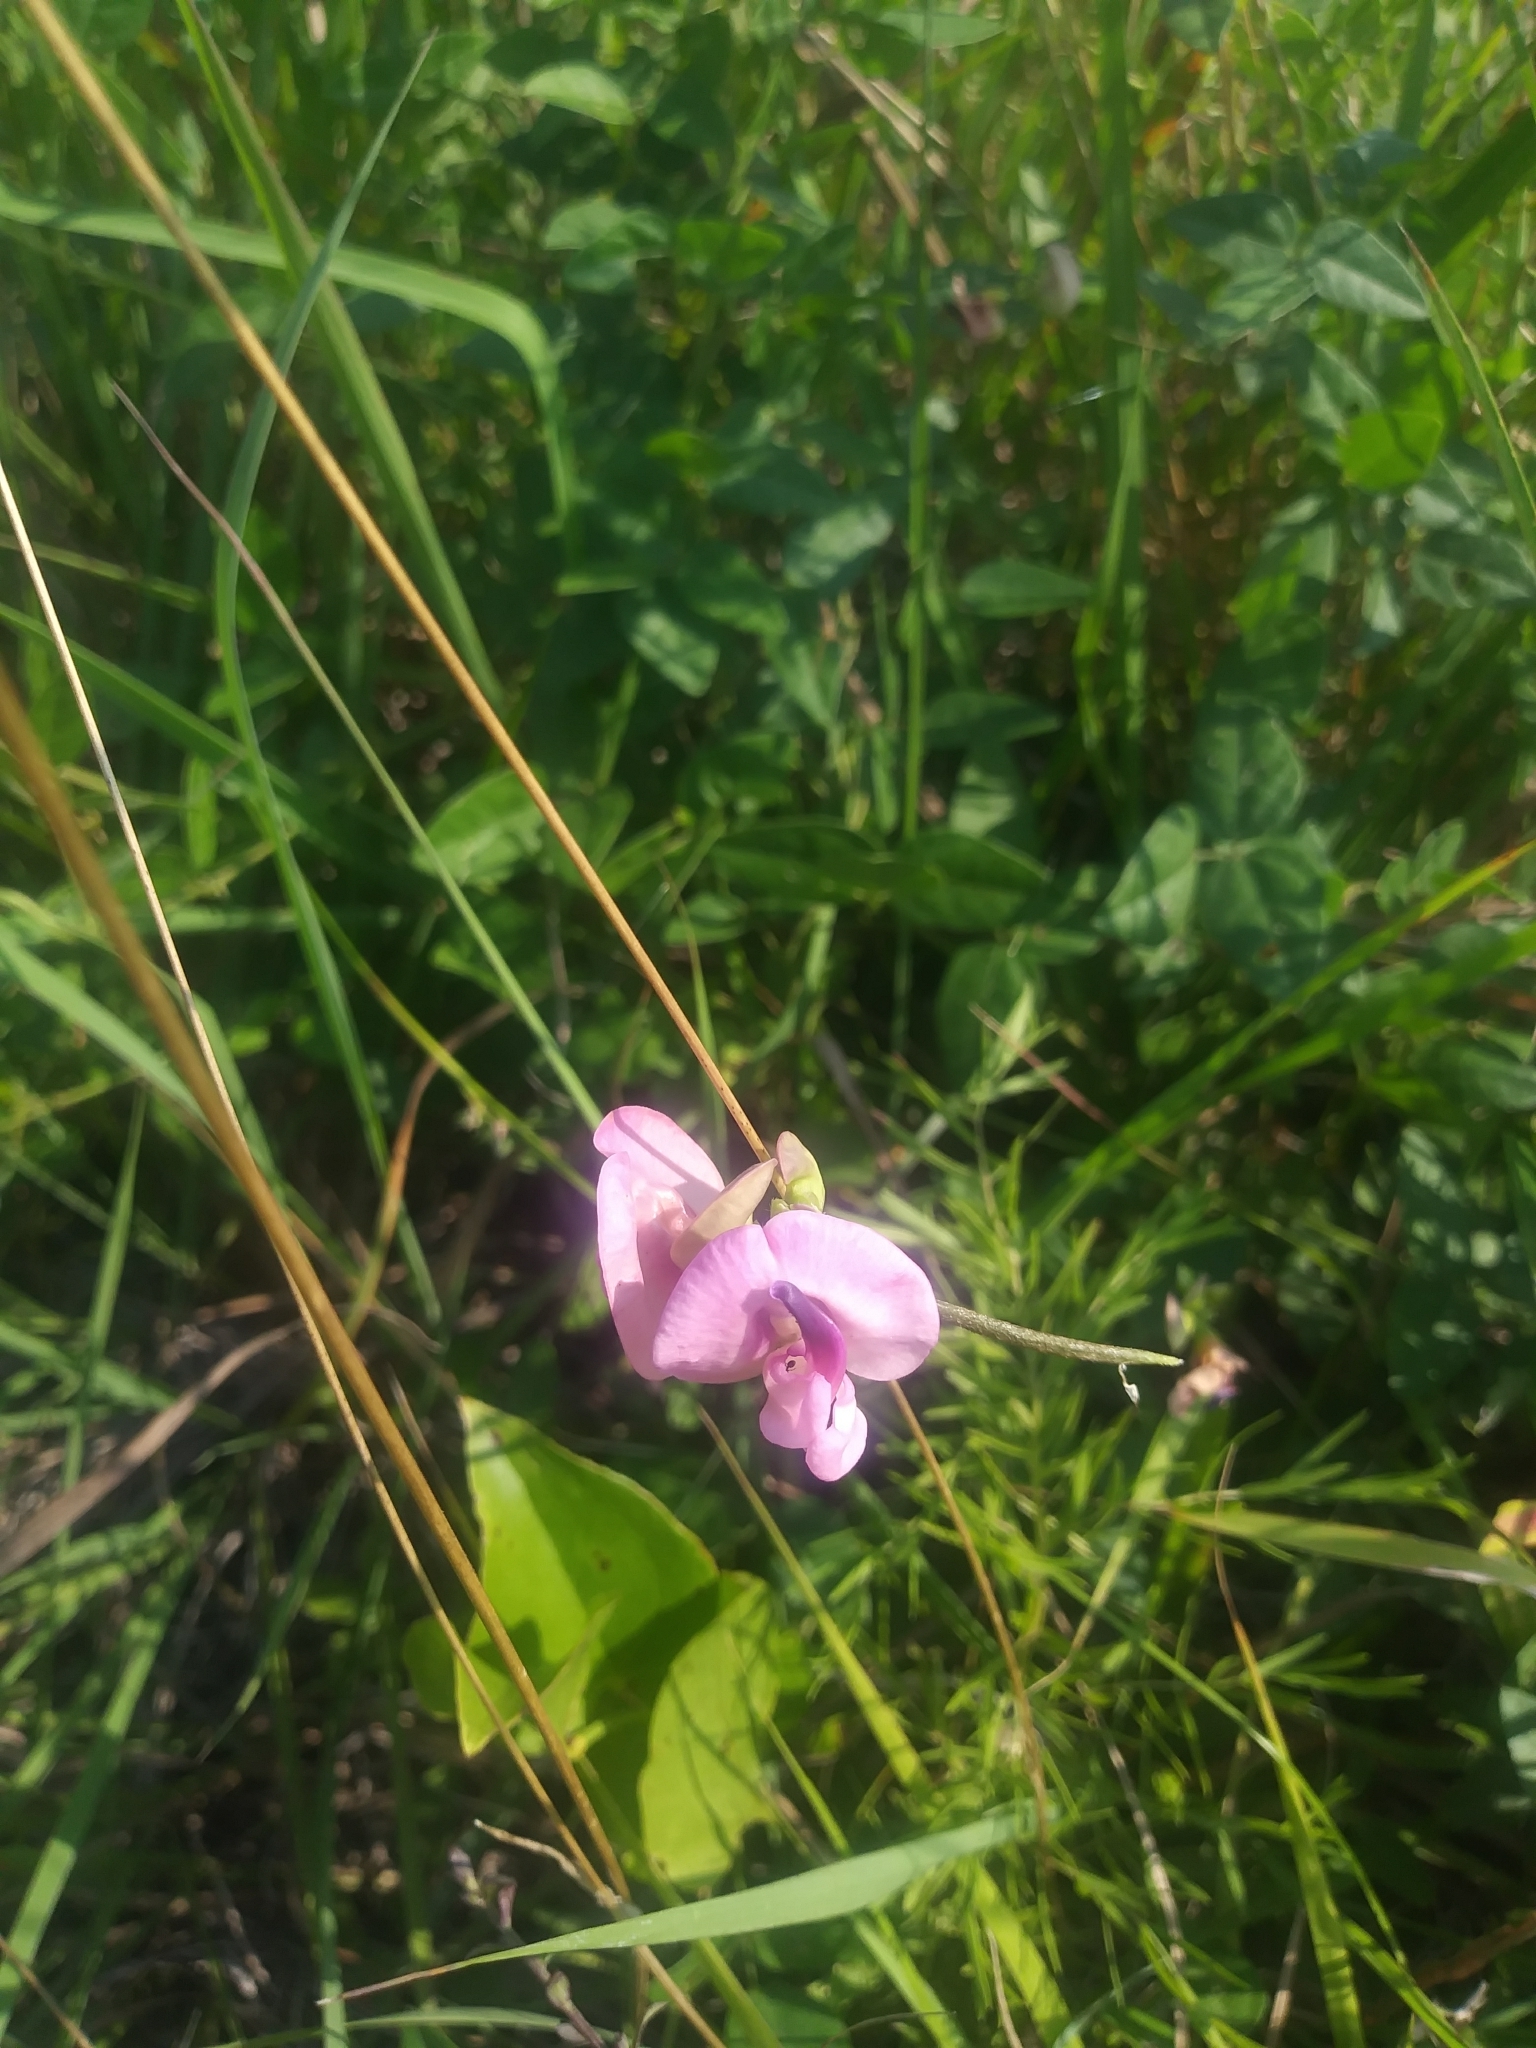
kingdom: Plantae
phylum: Tracheophyta
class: Magnoliopsida
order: Fabales
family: Fabaceae
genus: Strophostyles
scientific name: Strophostyles umbellata
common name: Perennial wild bean
